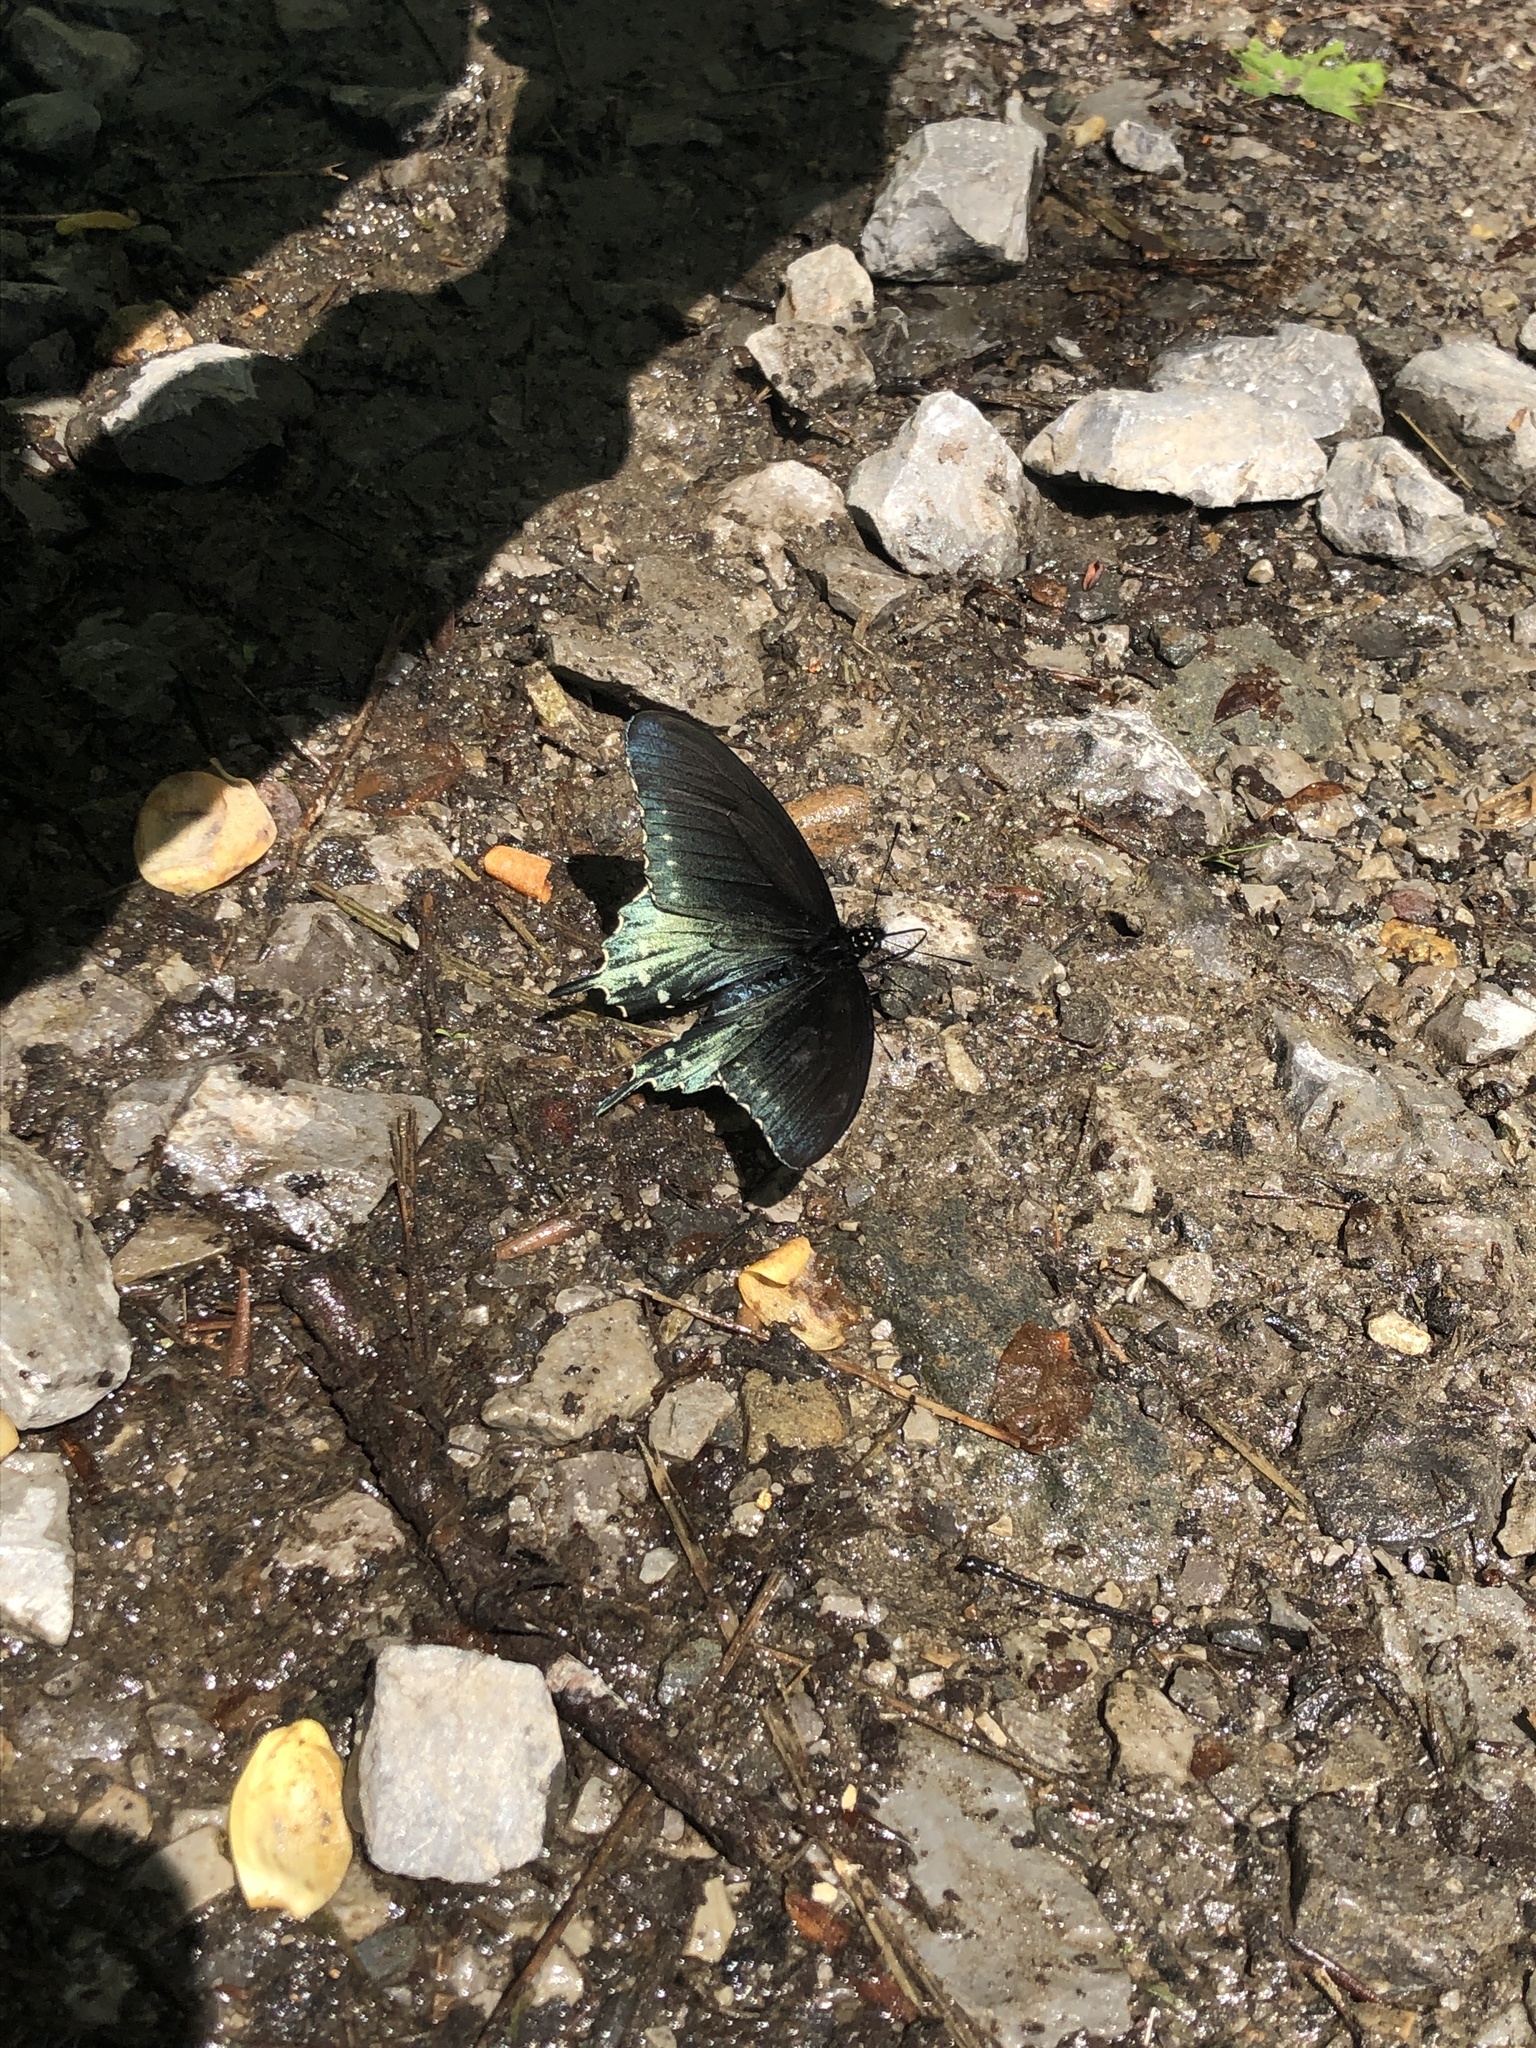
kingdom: Animalia
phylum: Arthropoda
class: Insecta
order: Lepidoptera
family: Papilionidae
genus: Battus
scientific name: Battus philenor
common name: Pipevine swallowtail
